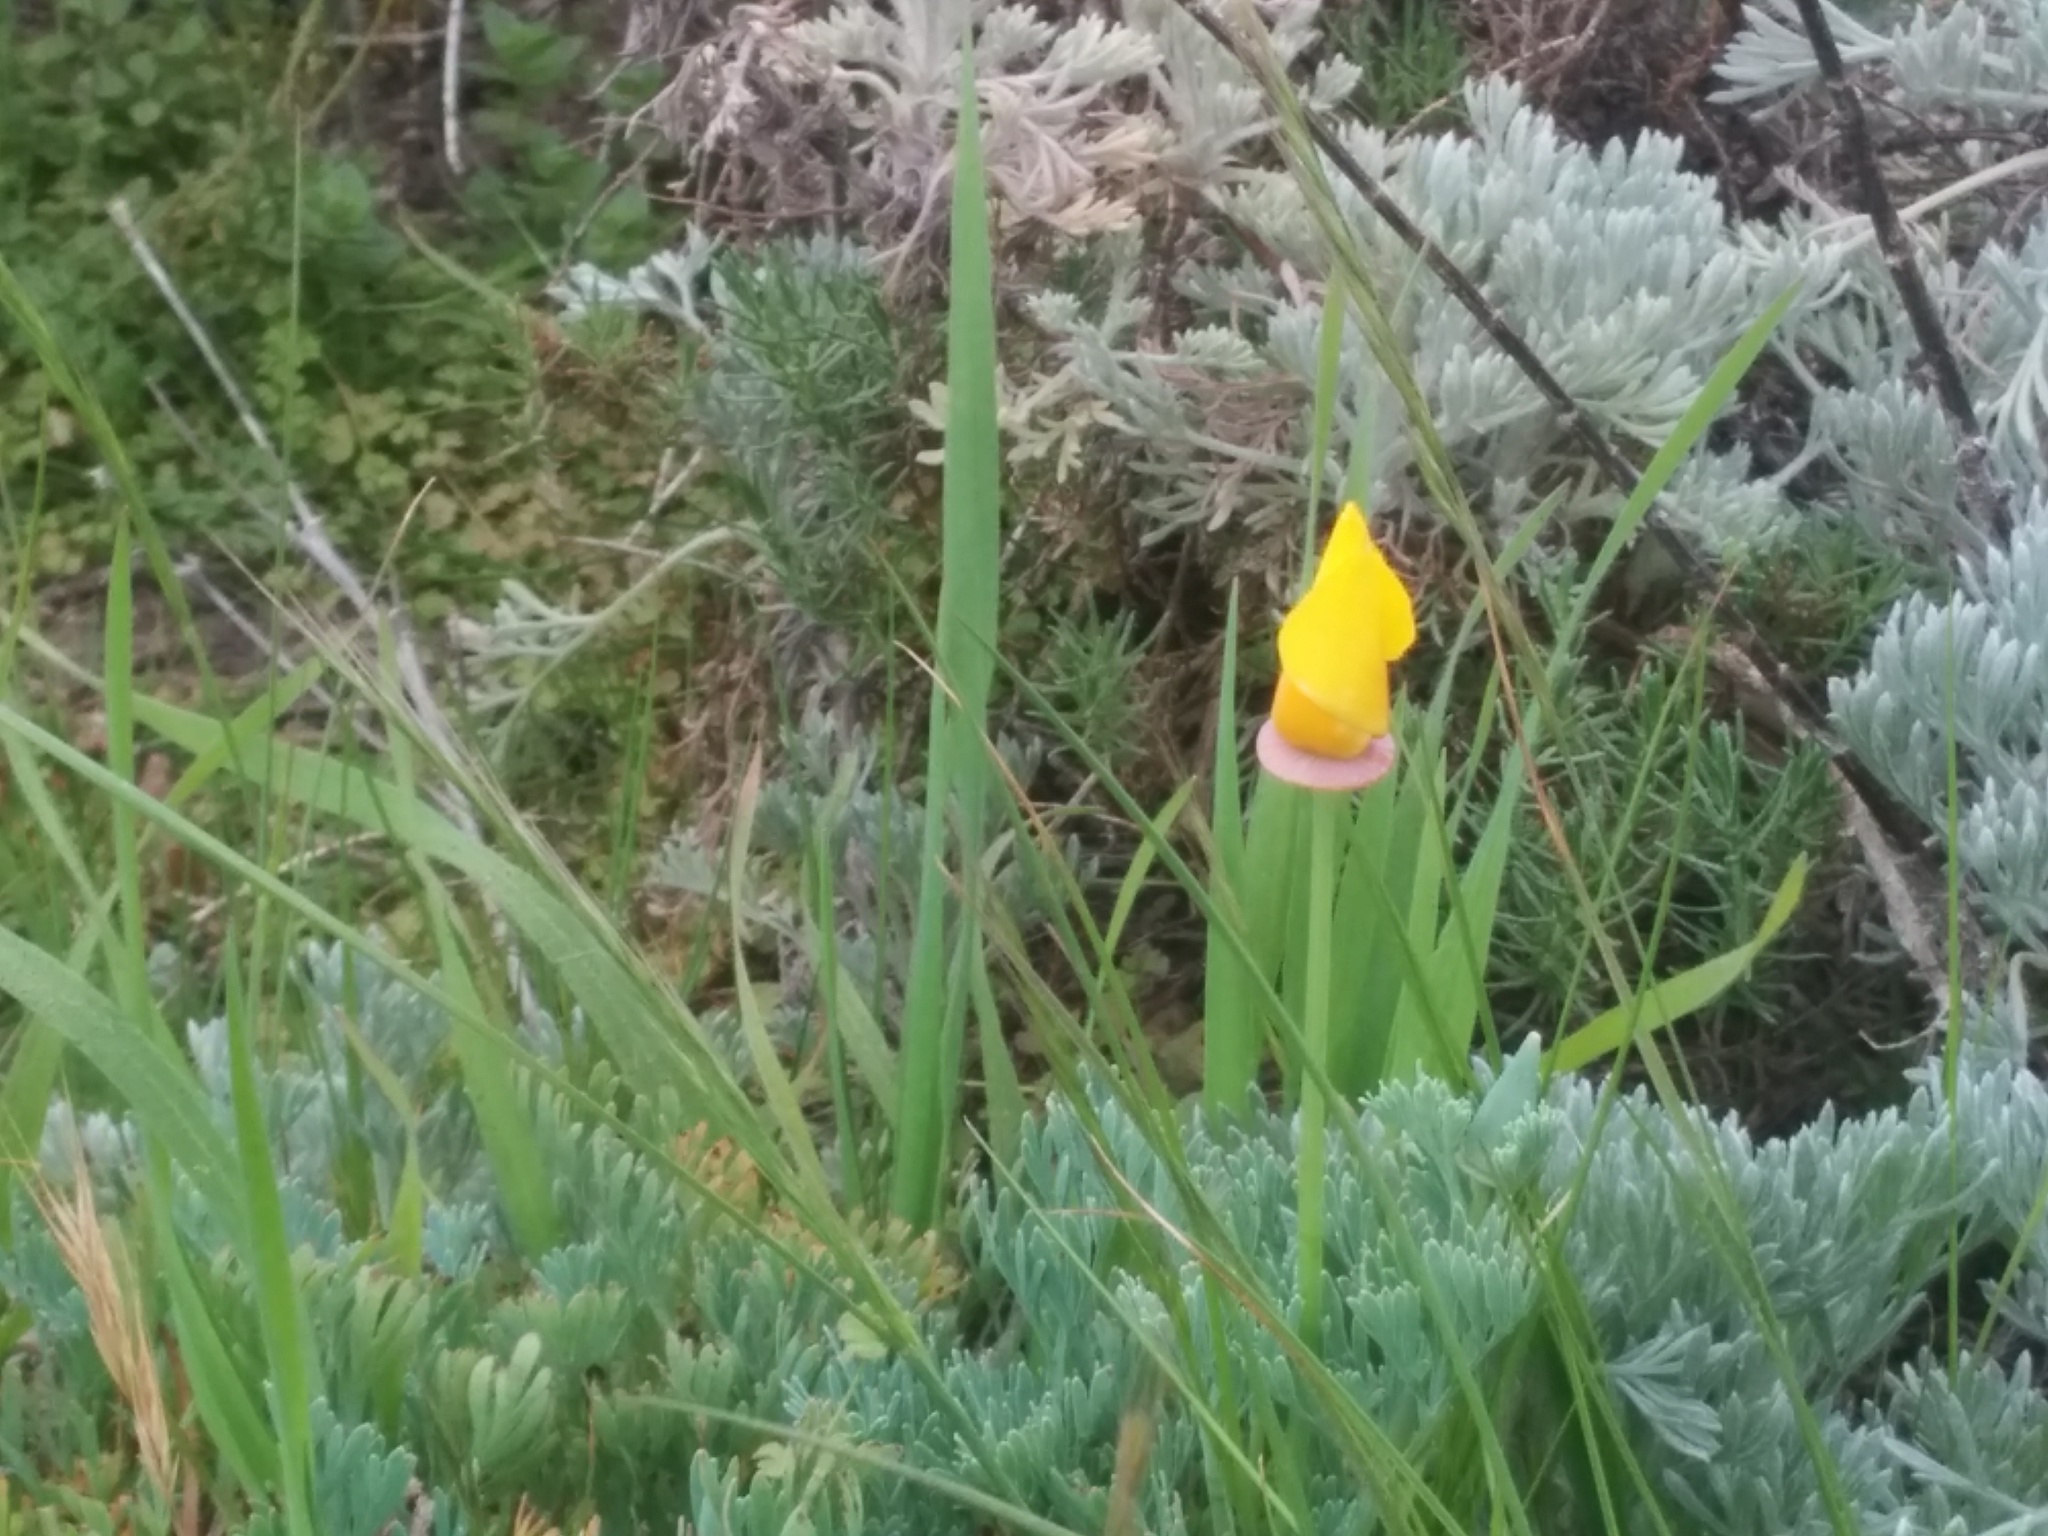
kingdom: Plantae
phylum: Tracheophyta
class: Magnoliopsida
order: Ranunculales
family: Papaveraceae
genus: Eschscholzia
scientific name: Eschscholzia californica
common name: California poppy
